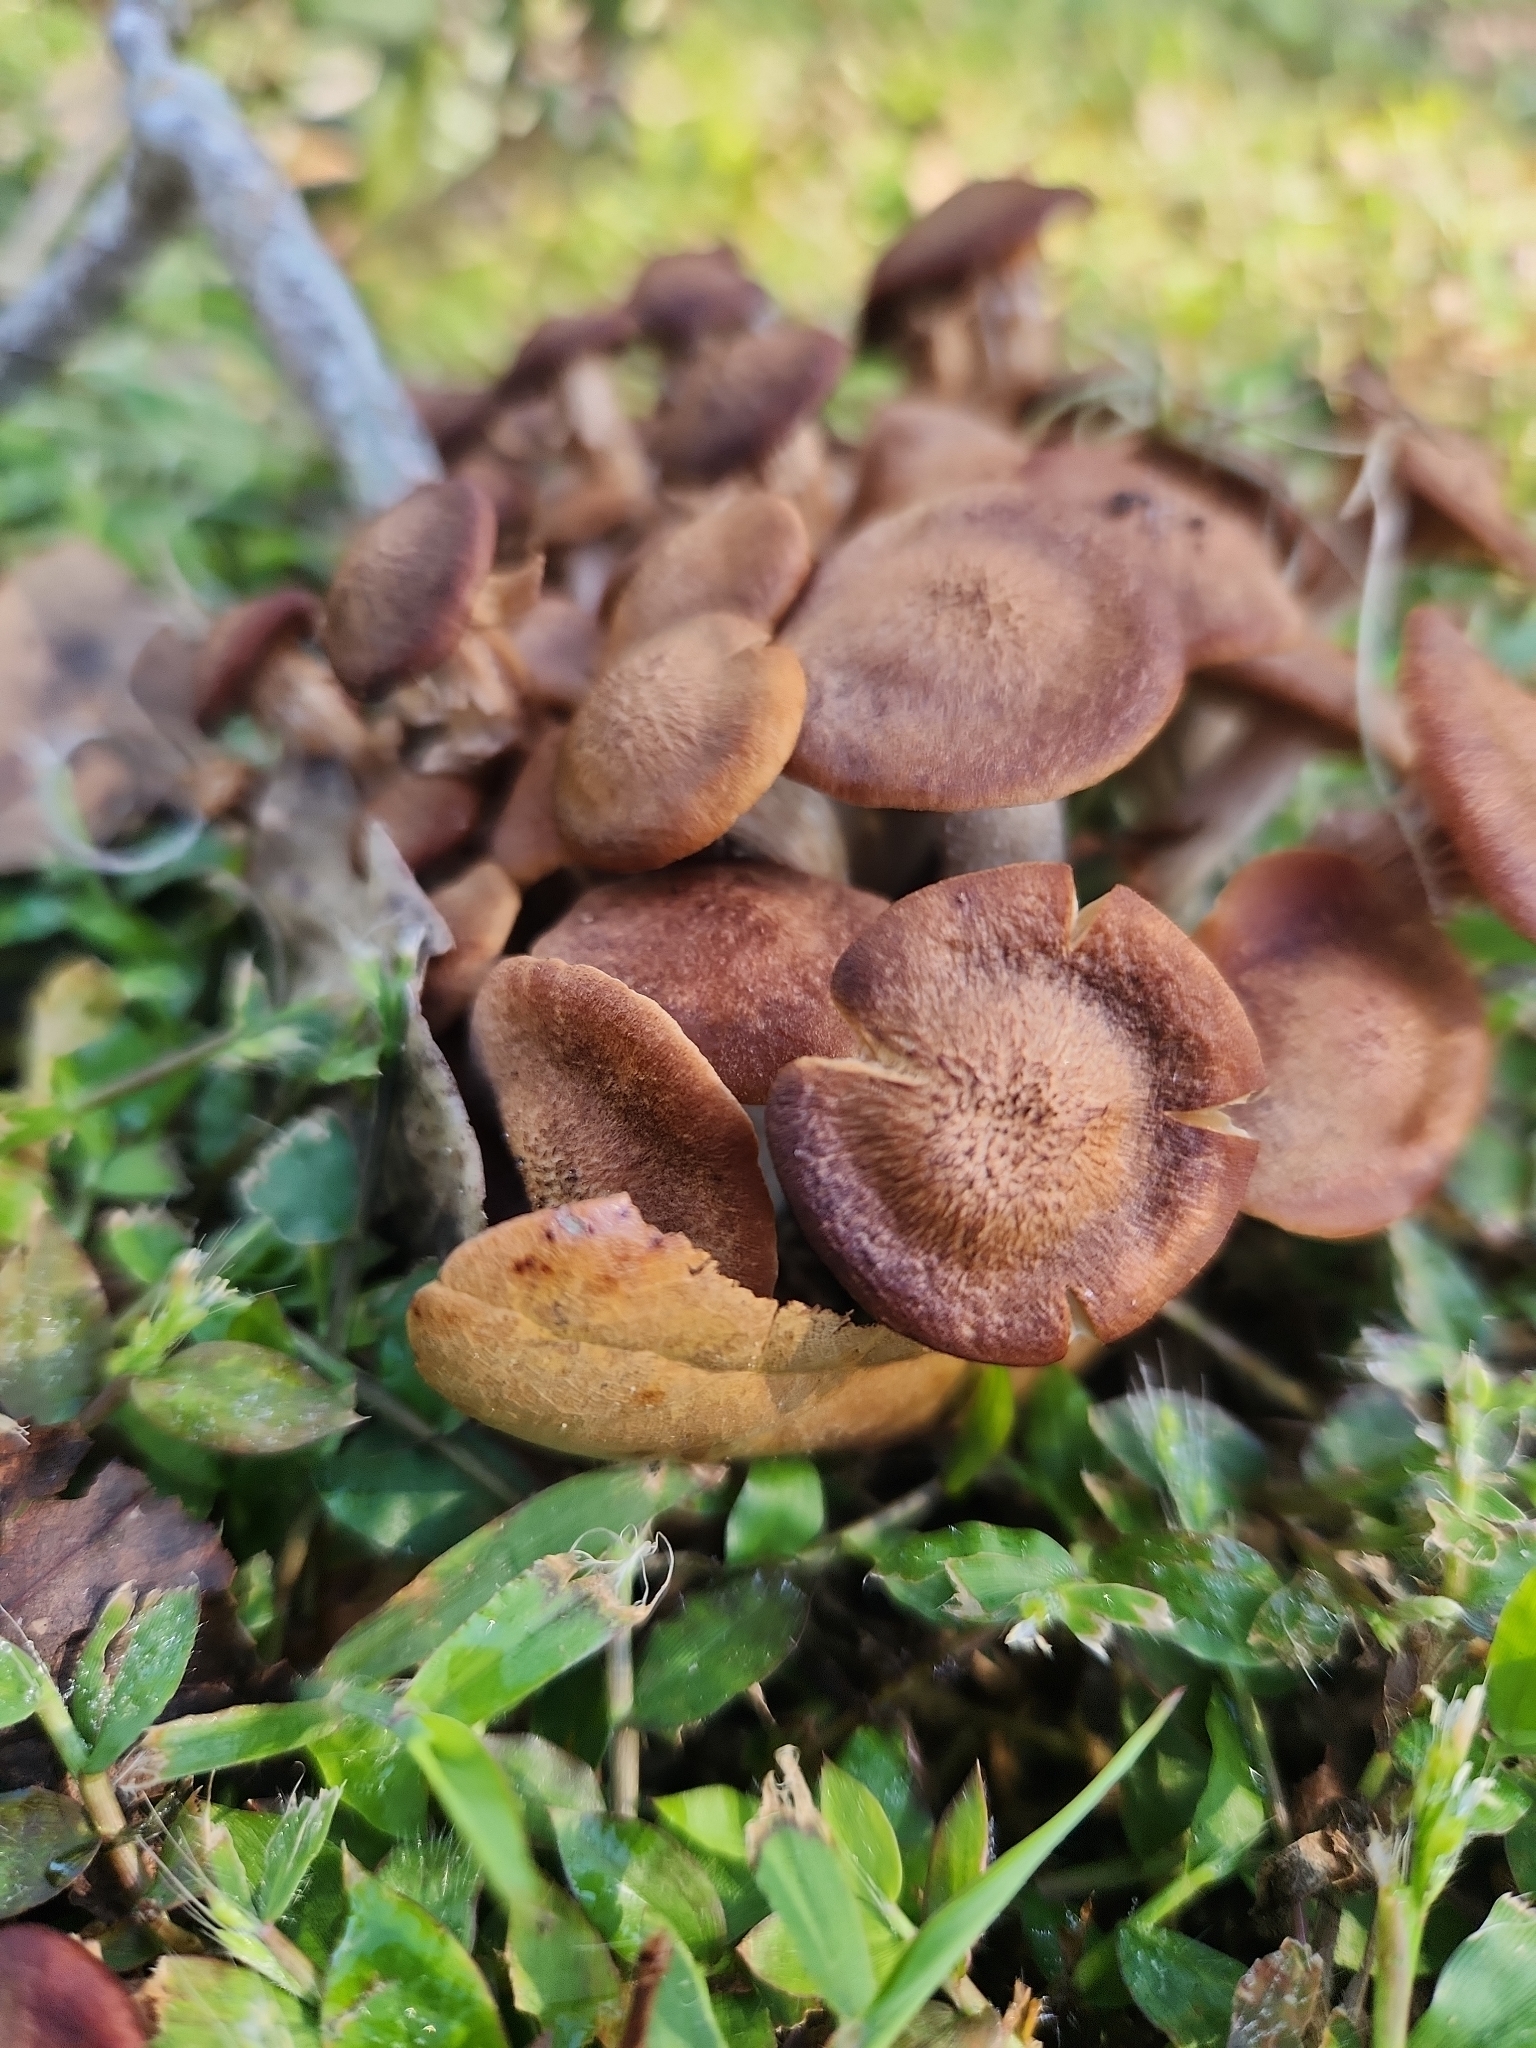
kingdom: Fungi
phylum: Basidiomycota
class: Agaricomycetes
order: Agaricales
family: Physalacriaceae
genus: Desarmillaria
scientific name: Desarmillaria caespitosa
